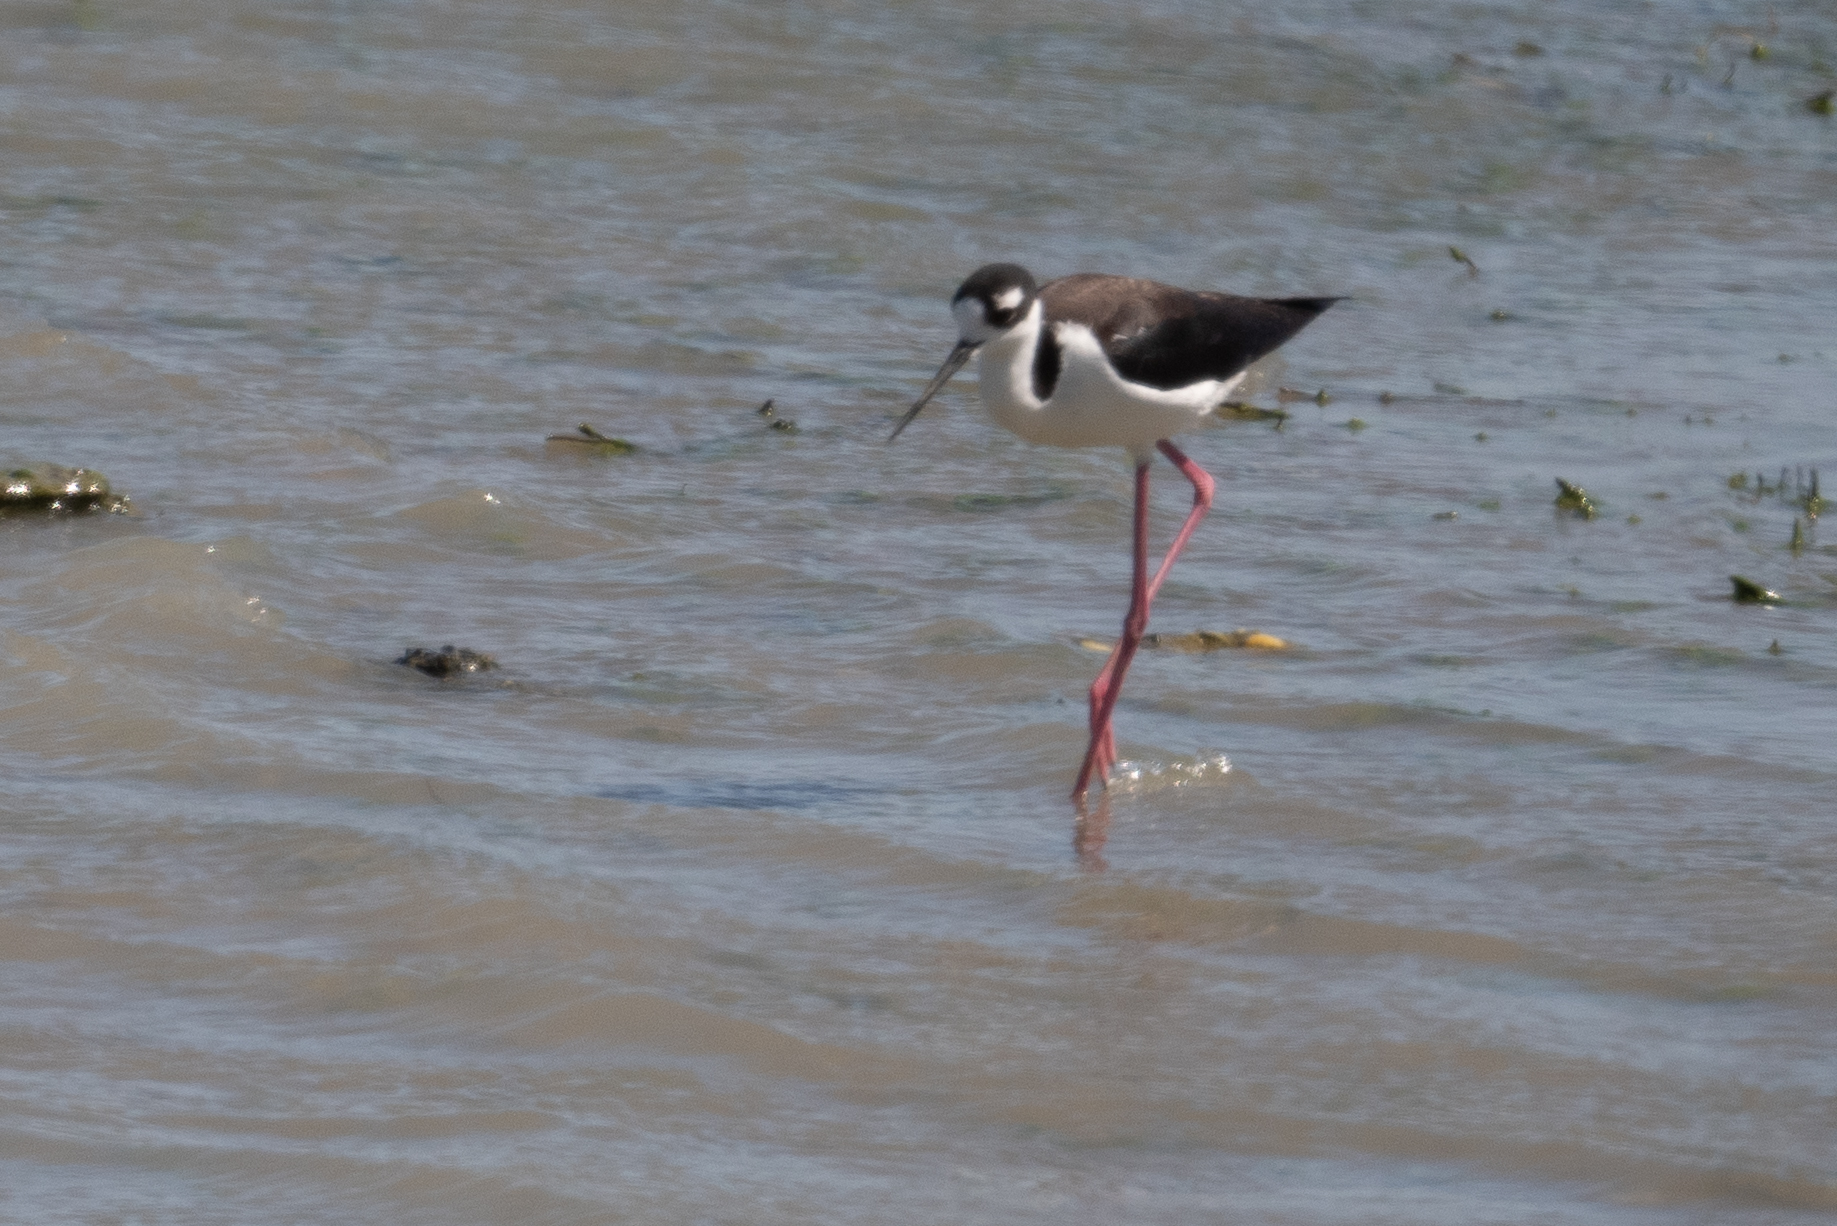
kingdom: Animalia
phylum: Chordata
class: Aves
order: Charadriiformes
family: Recurvirostridae
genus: Himantopus
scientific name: Himantopus mexicanus
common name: Black-necked stilt
